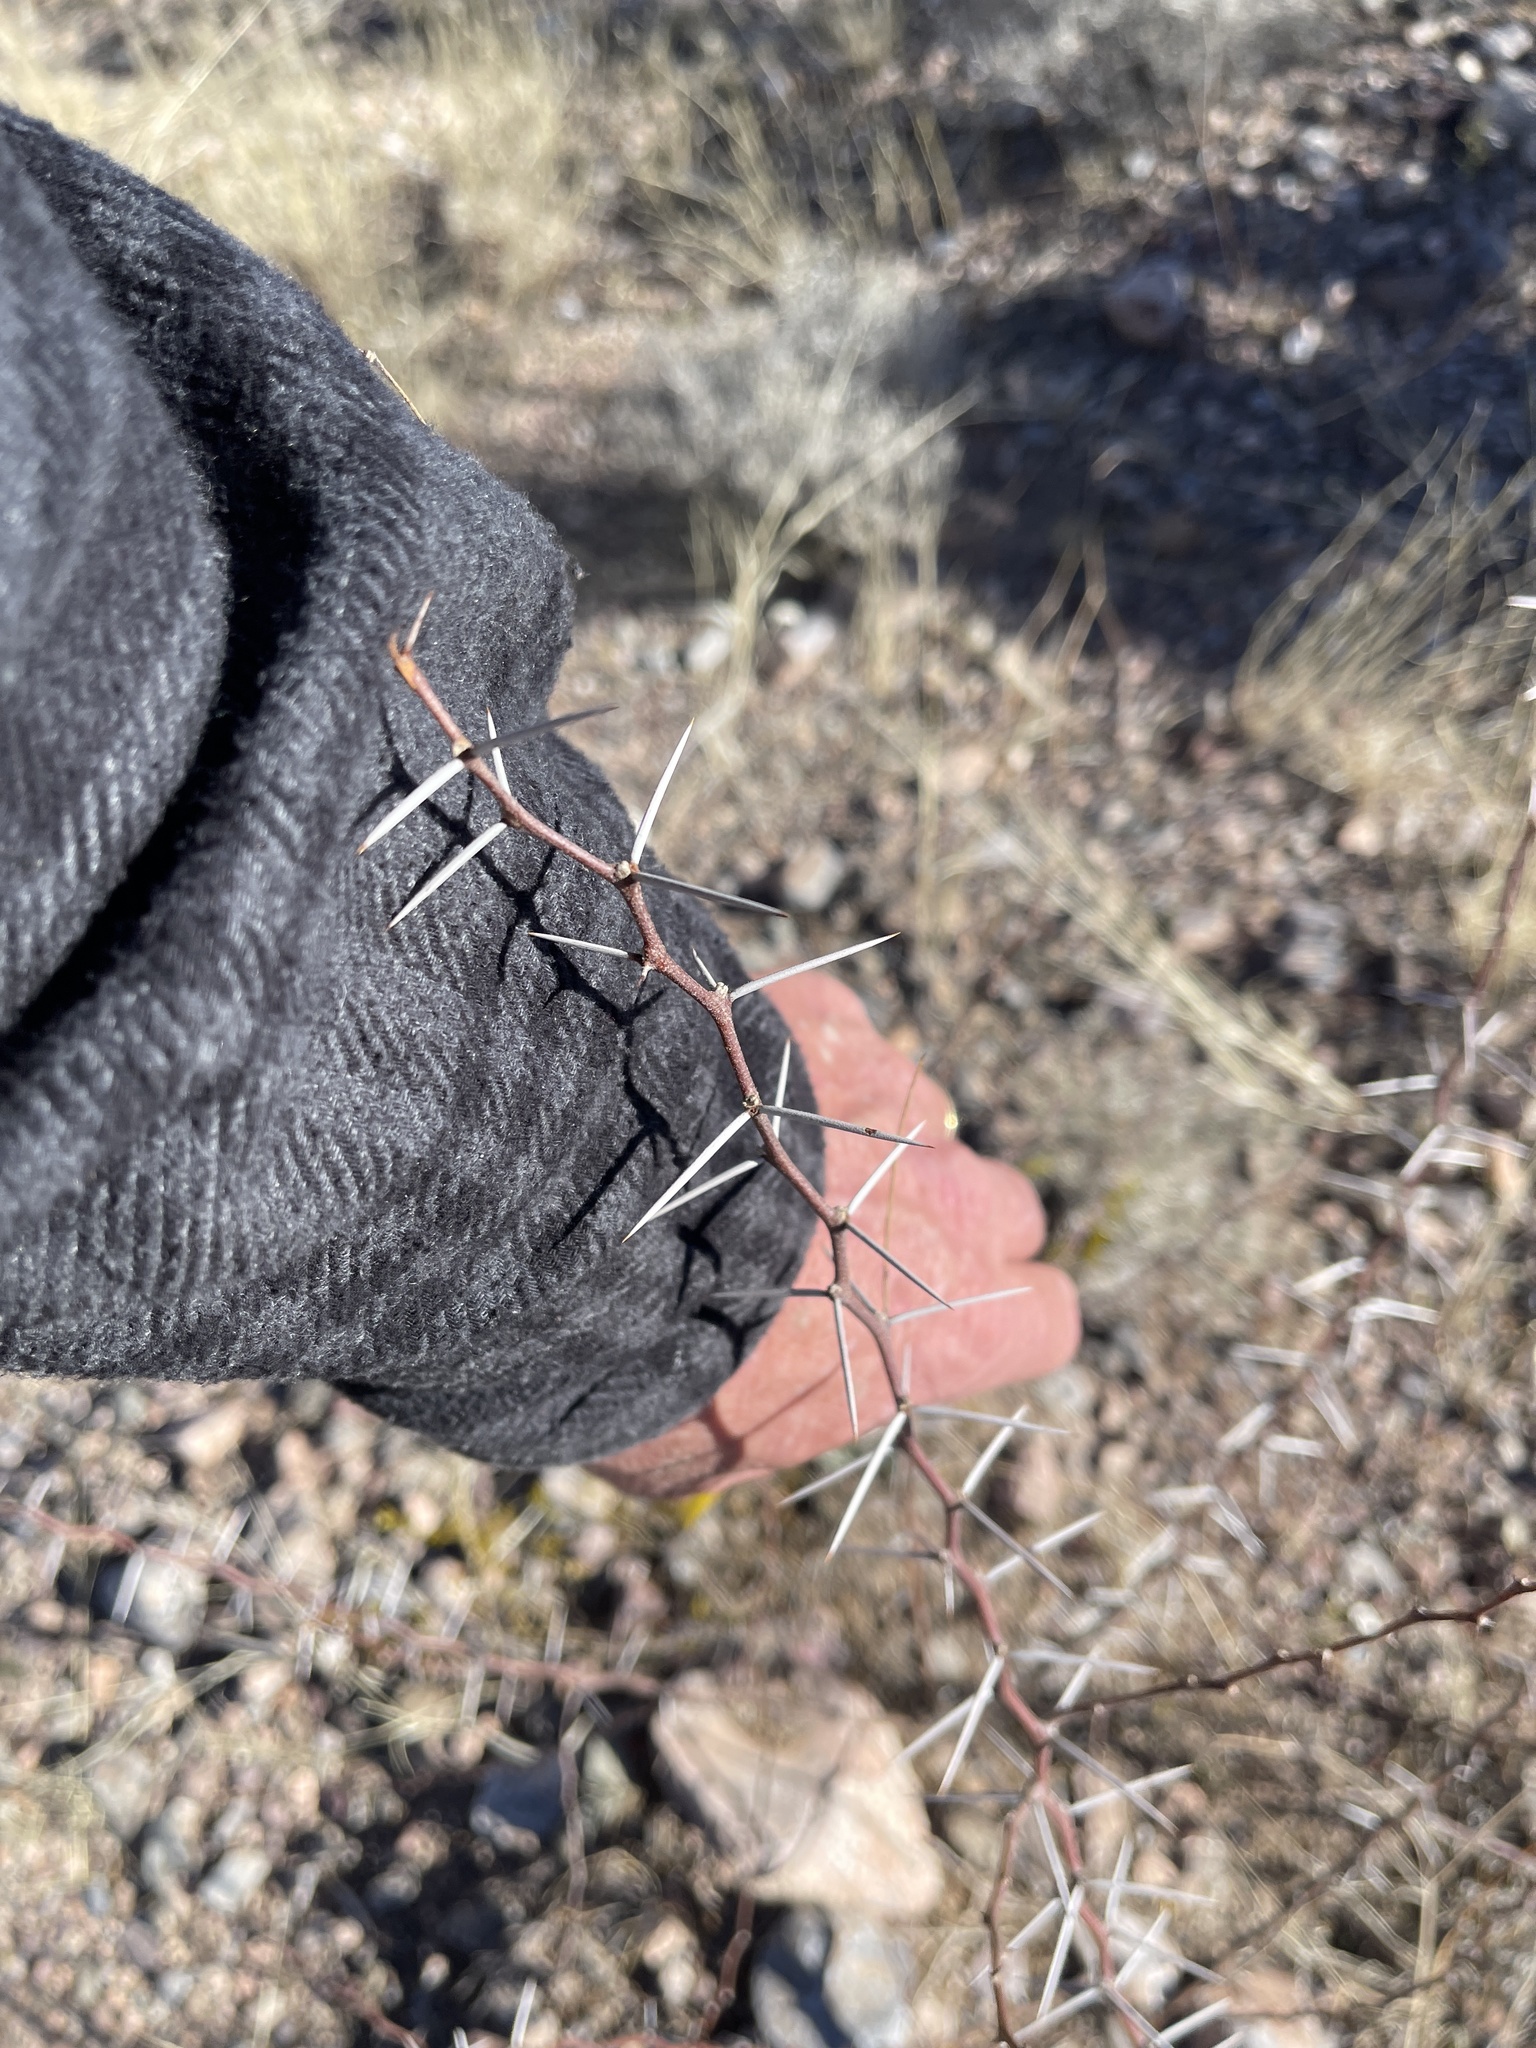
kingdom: Plantae
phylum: Tracheophyta
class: Magnoliopsida
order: Fabales
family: Fabaceae
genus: Vachellia
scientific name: Vachellia constricta
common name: Mescat acacia
